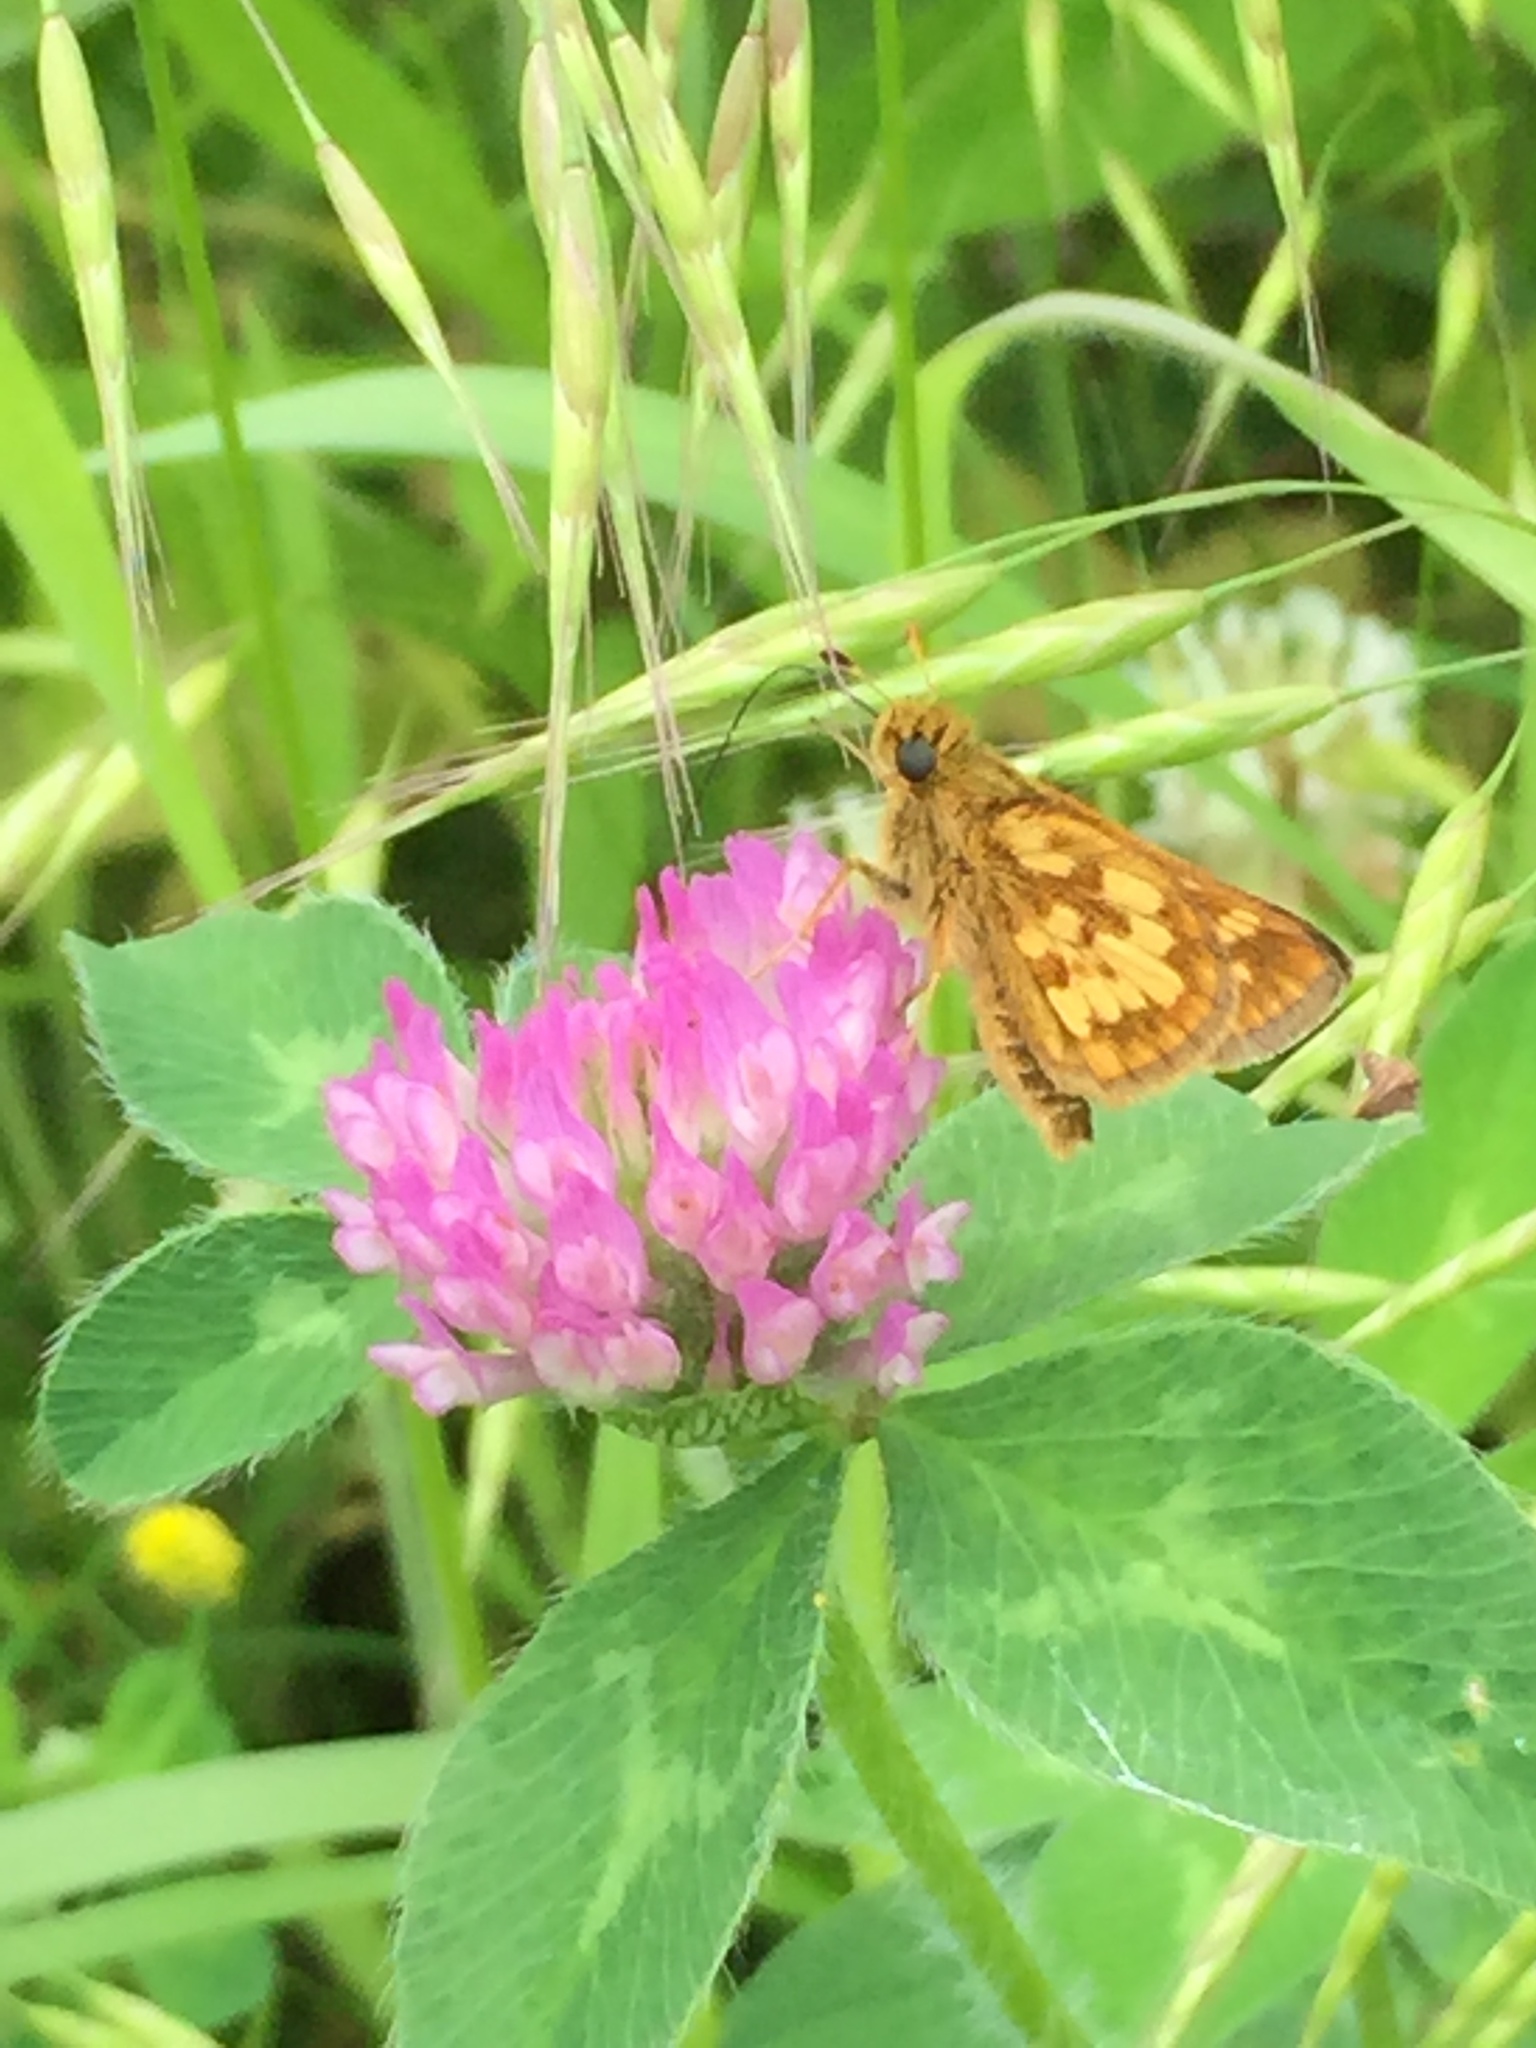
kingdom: Animalia
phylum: Arthropoda
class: Insecta
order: Lepidoptera
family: Hesperiidae
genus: Polites
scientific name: Polites coras
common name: Peck's skipper
